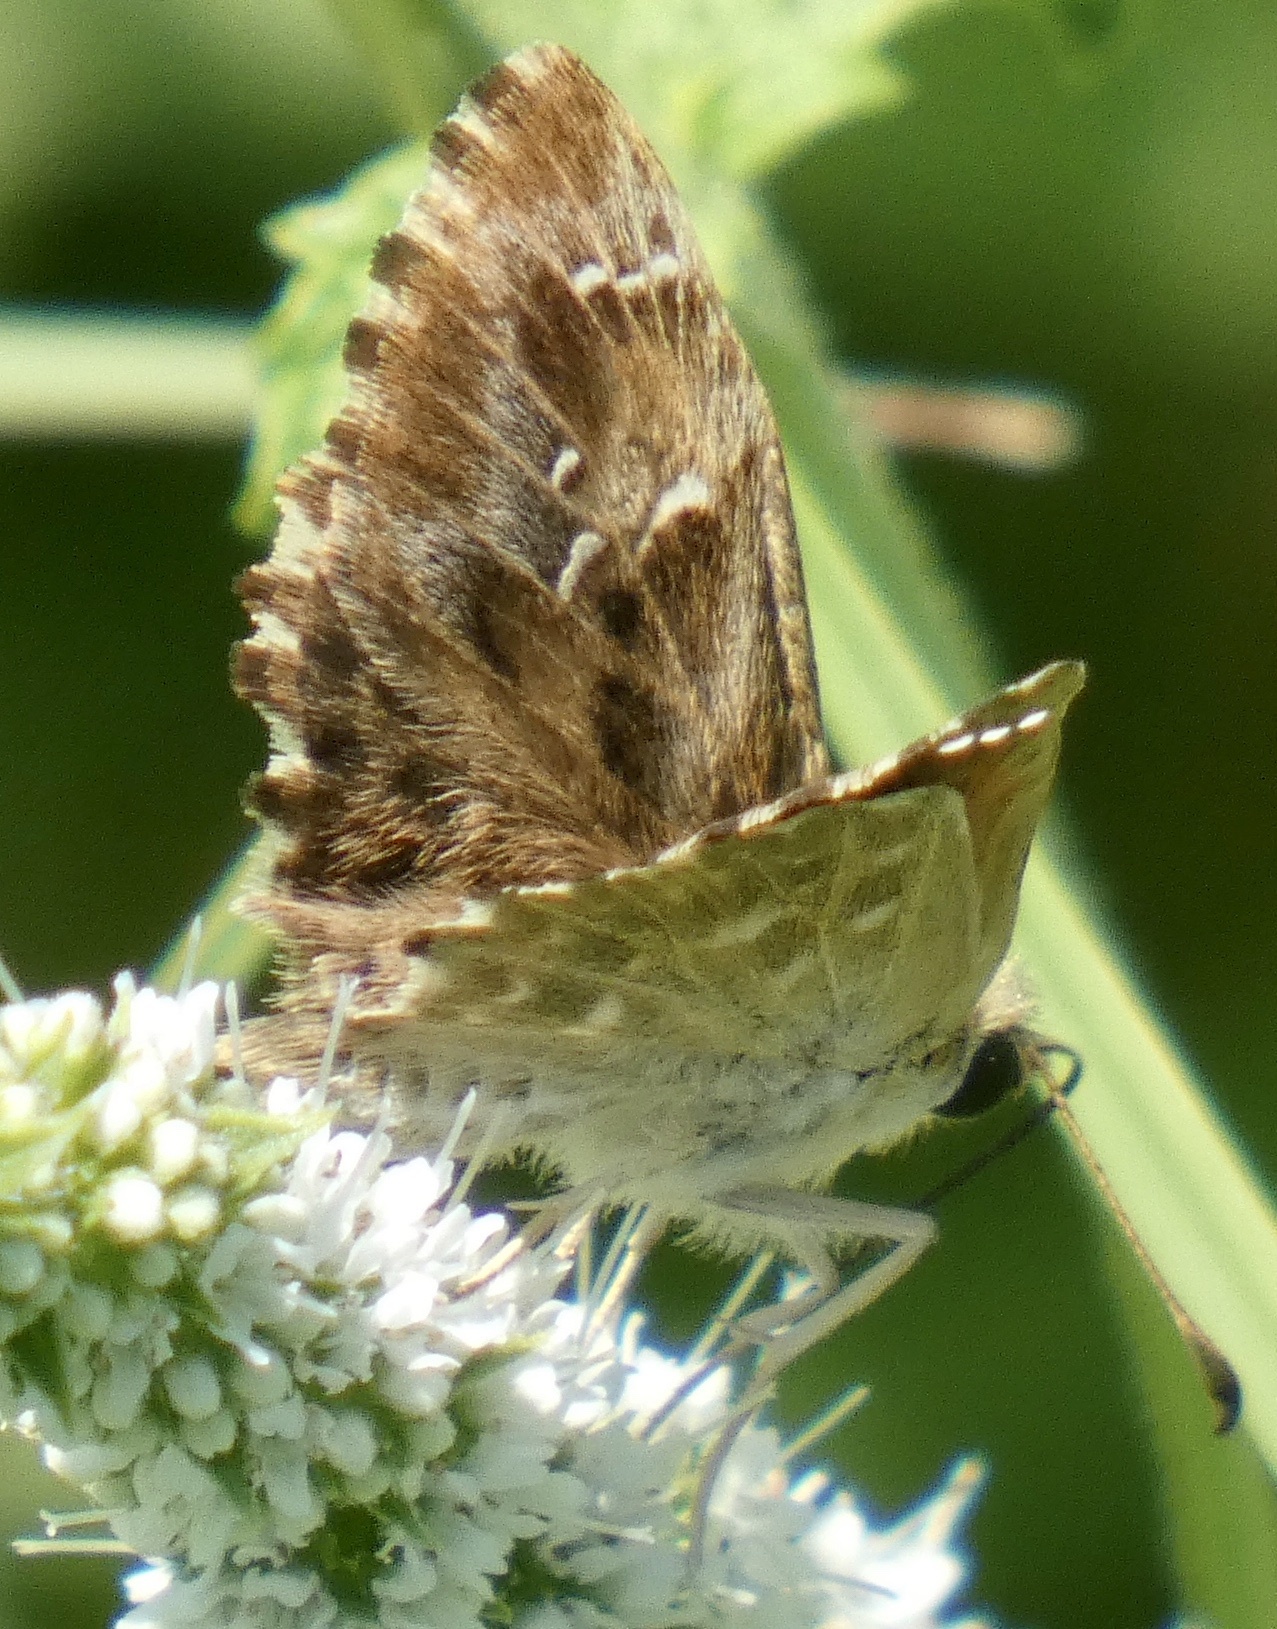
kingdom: Animalia
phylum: Arthropoda
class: Insecta
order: Lepidoptera
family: Hesperiidae
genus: Carcharodus
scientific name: Carcharodus alceae
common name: Mallow skipper
